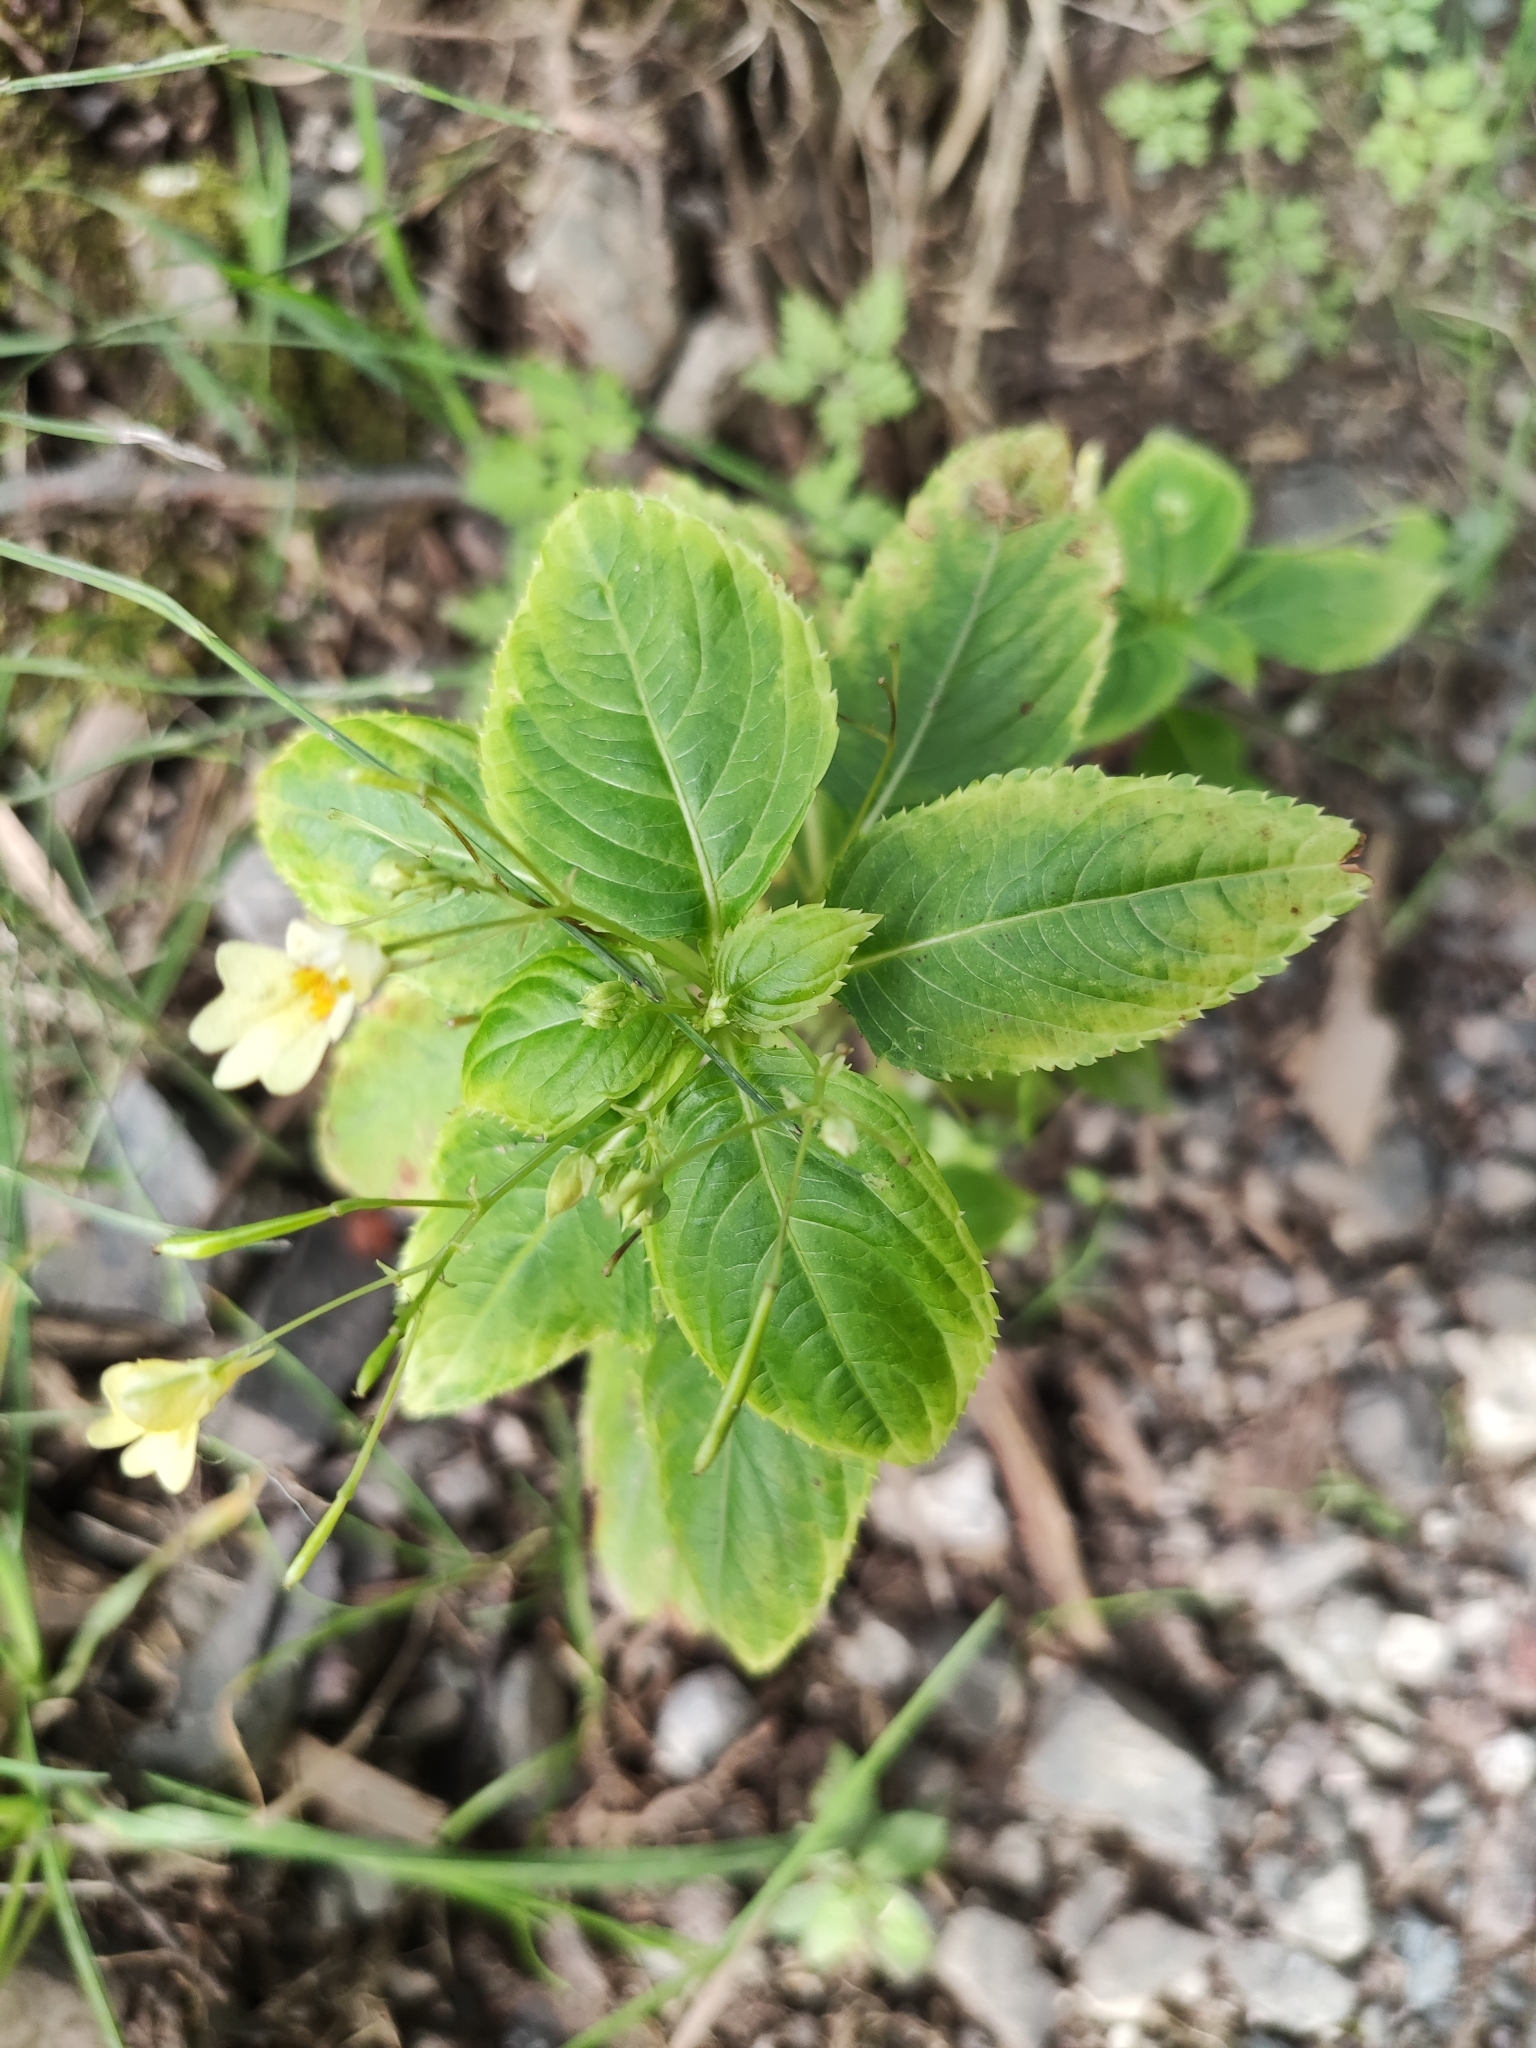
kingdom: Plantae
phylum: Tracheophyta
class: Magnoliopsida
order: Ericales
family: Balsaminaceae
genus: Impatiens
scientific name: Impatiens parviflora
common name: Small balsam
